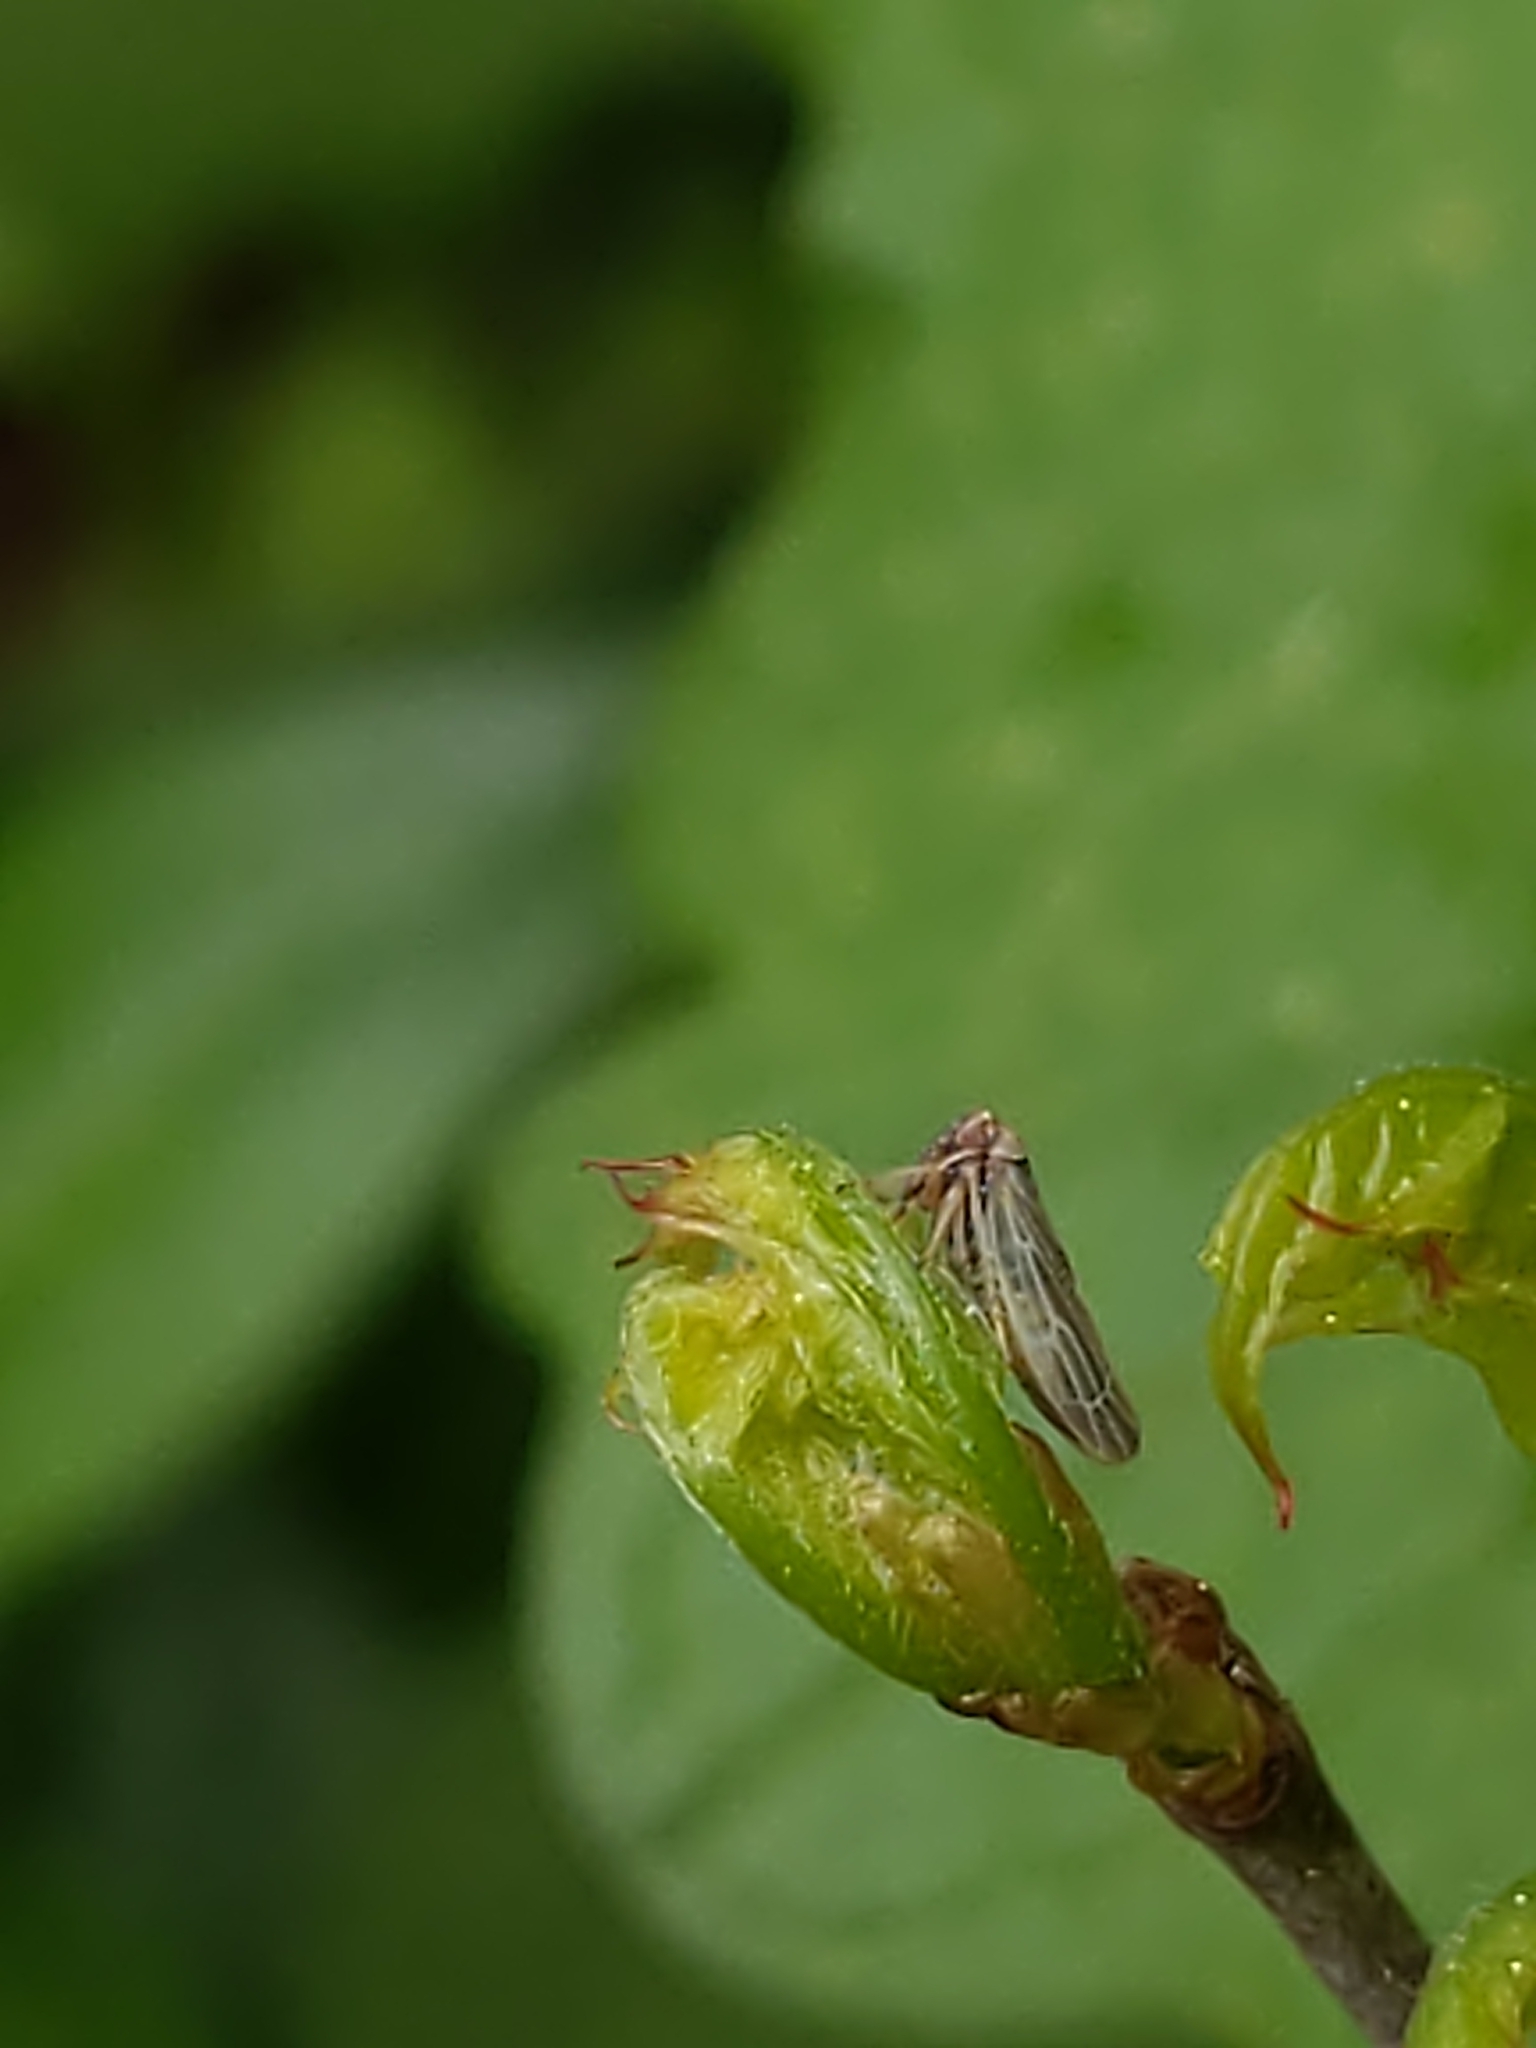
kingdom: Animalia
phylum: Arthropoda
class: Insecta
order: Hemiptera
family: Cicadellidae
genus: Agalliopsis
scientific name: Agalliopsis
